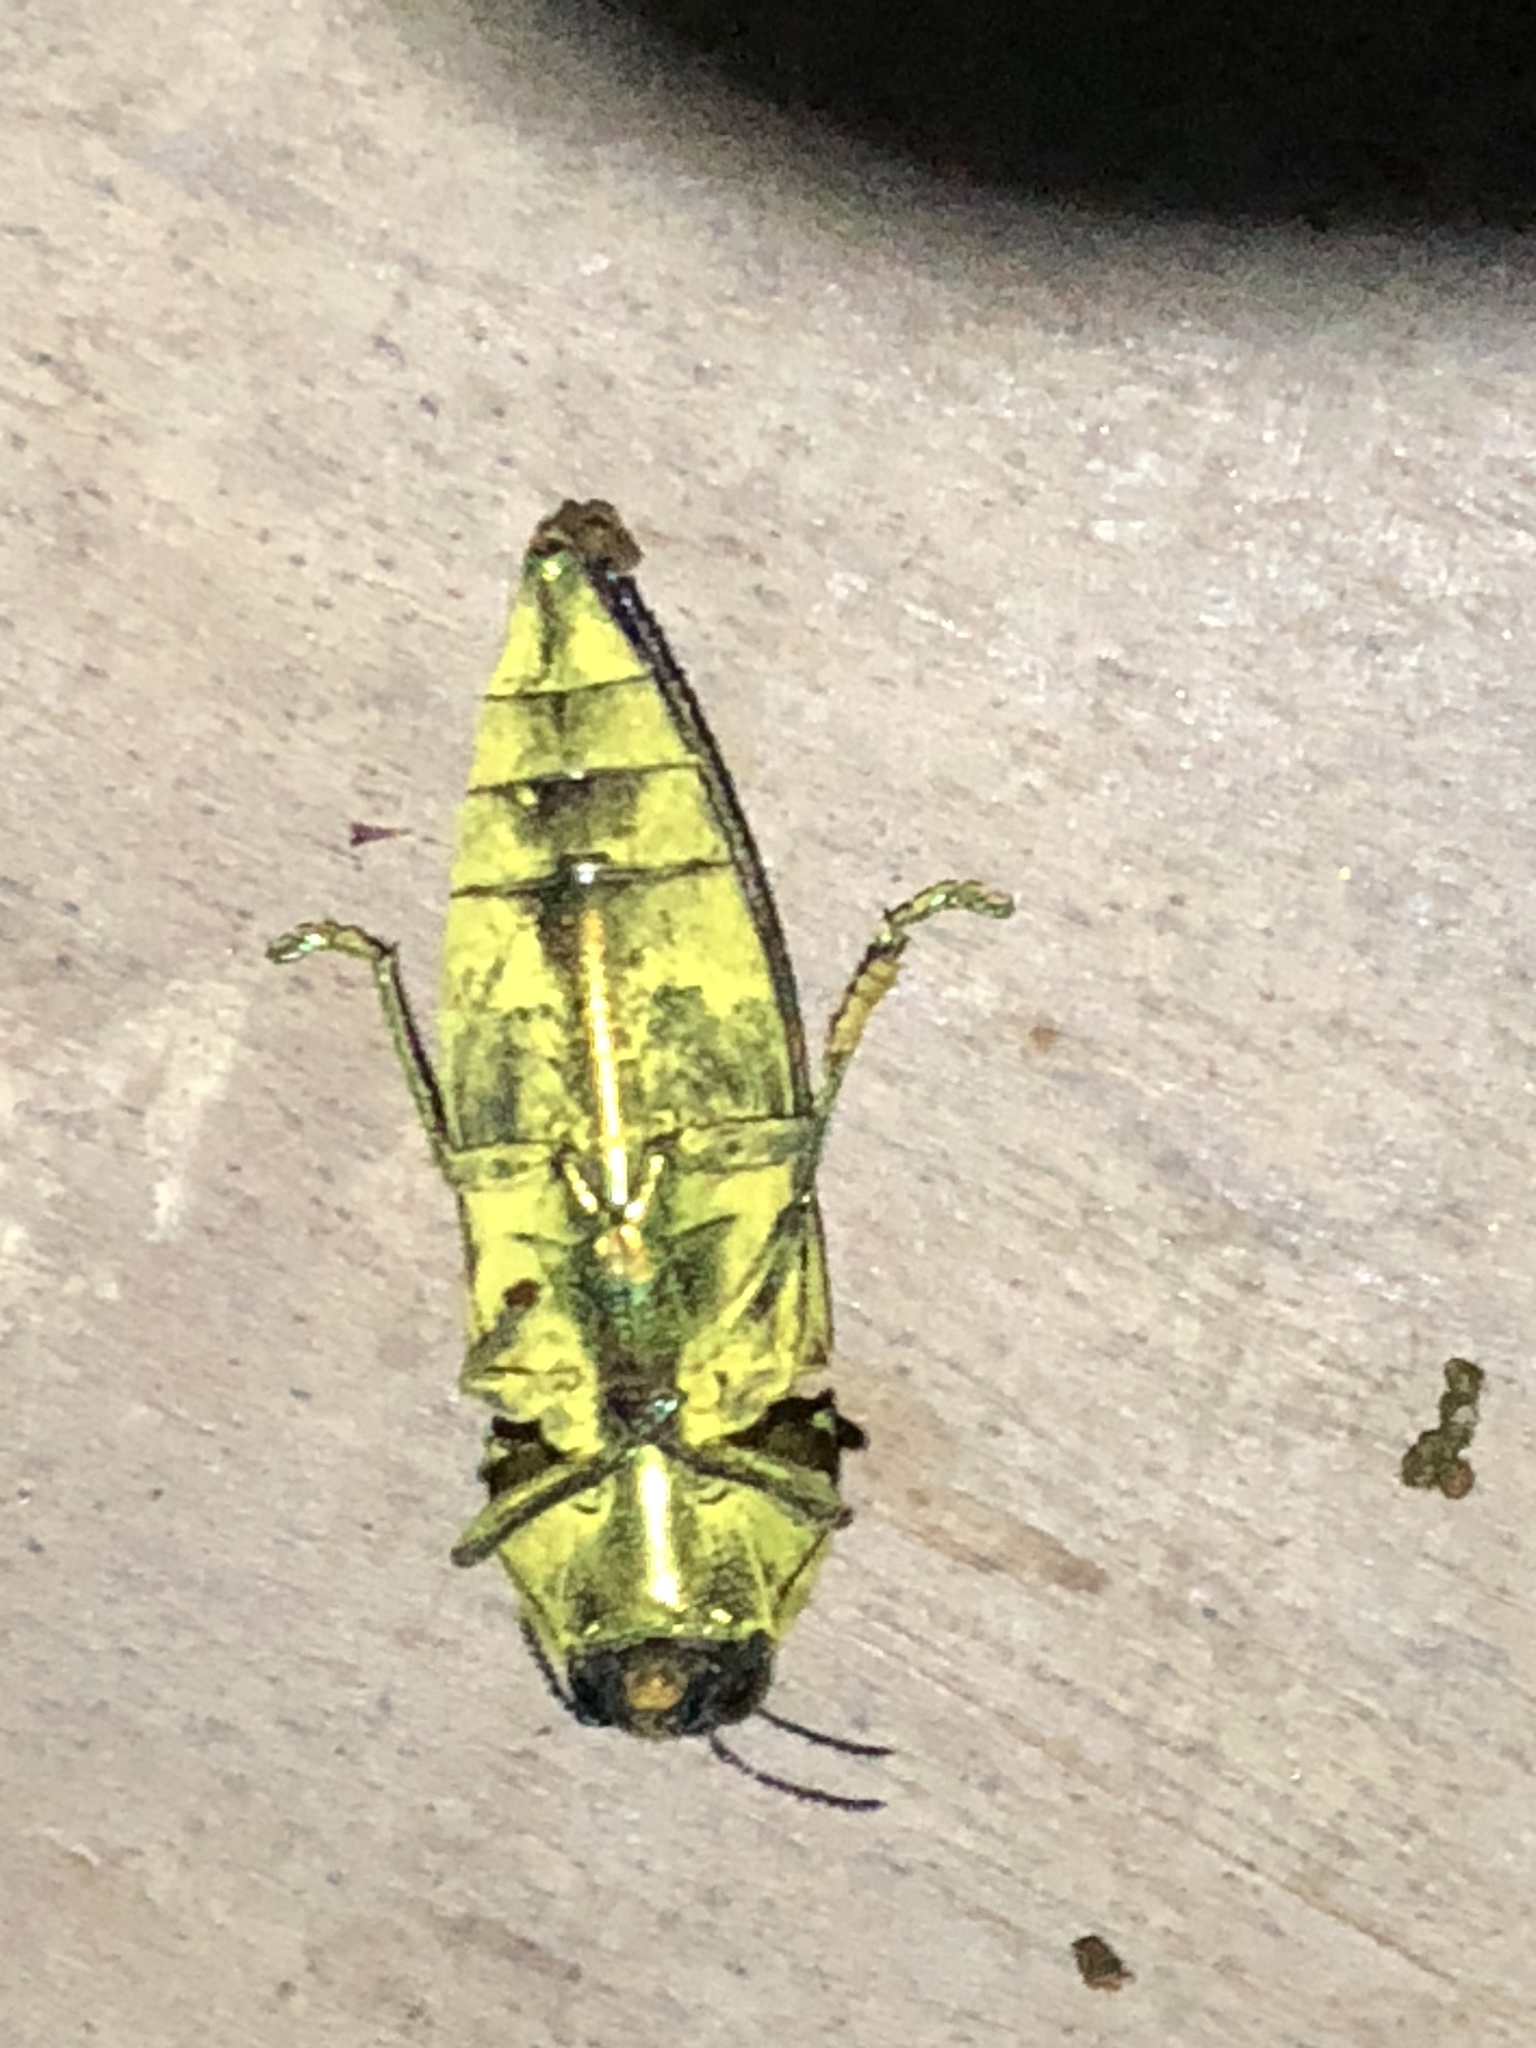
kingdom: Animalia
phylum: Arthropoda
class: Insecta
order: Coleoptera
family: Buprestidae
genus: Pelecopselaphus
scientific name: Pelecopselaphus blandus
